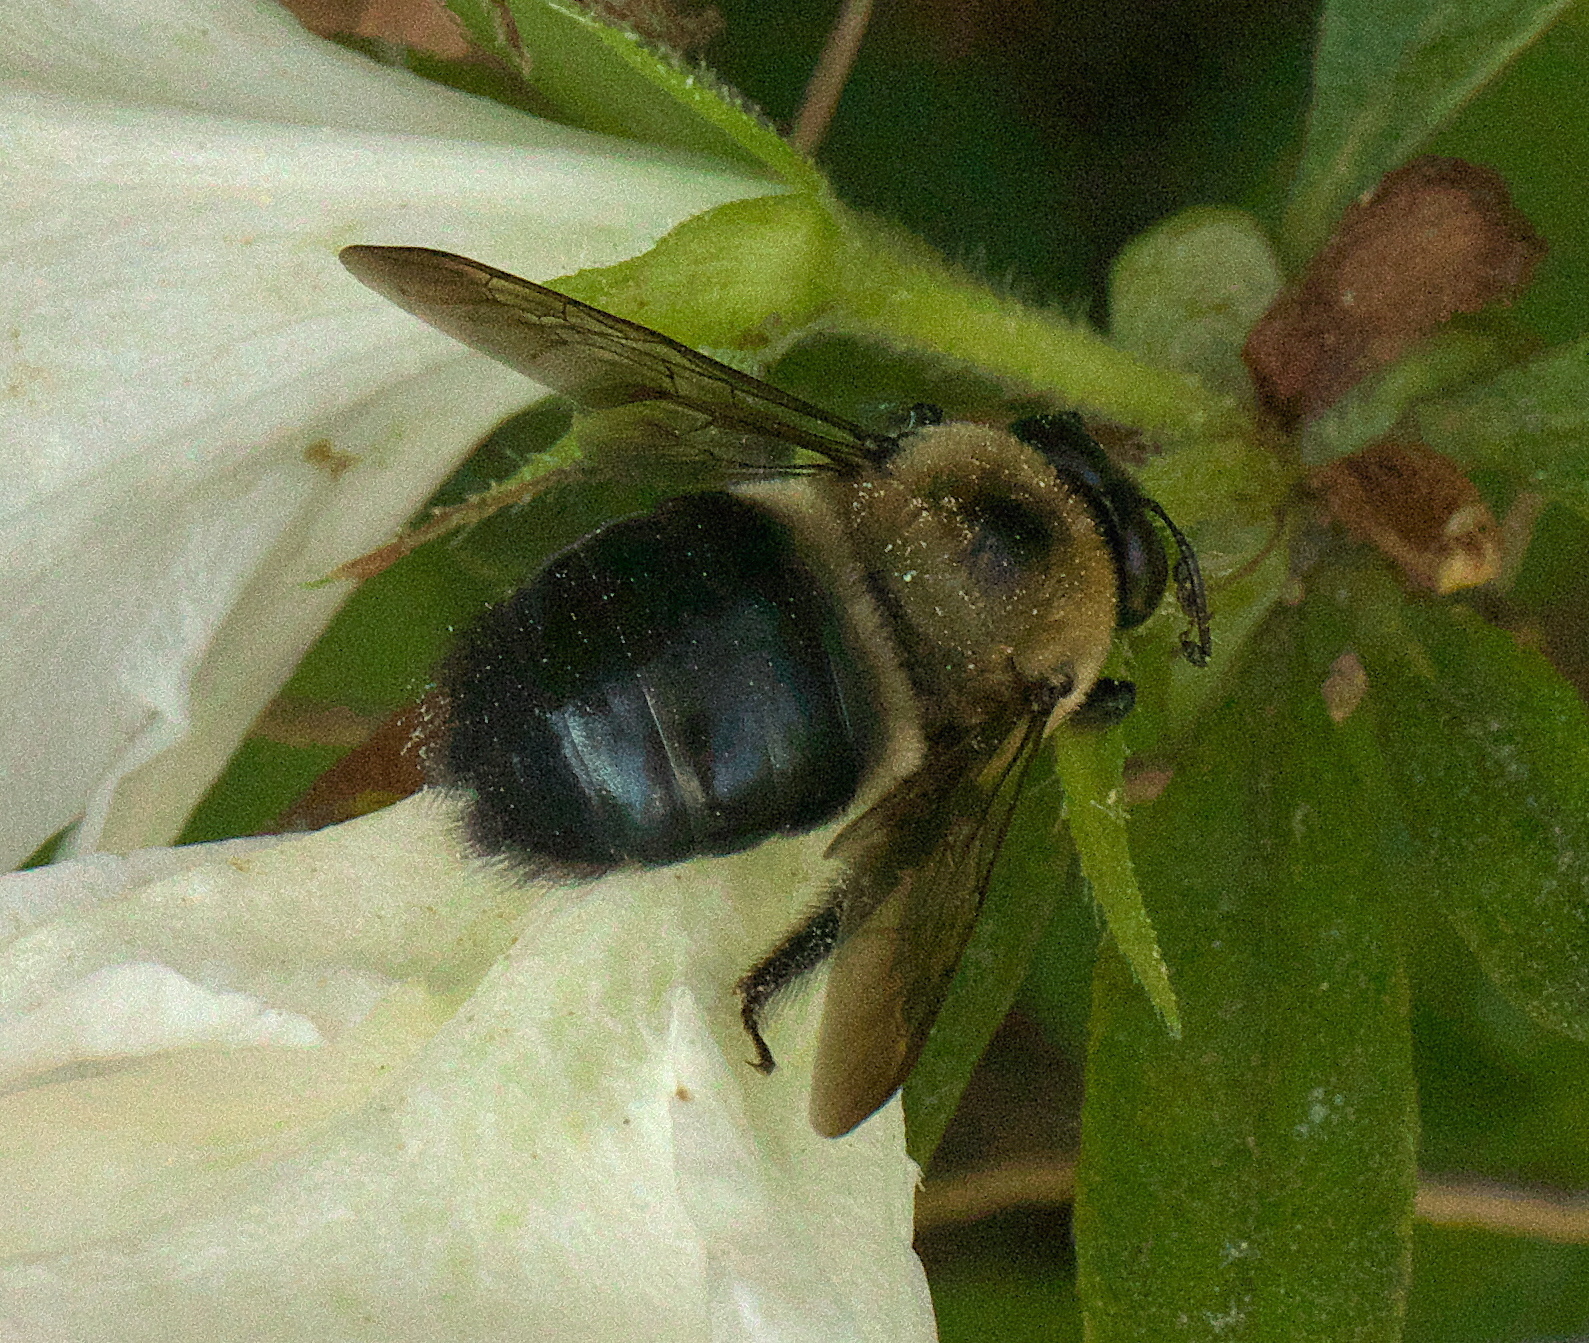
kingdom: Animalia
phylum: Arthropoda
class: Insecta
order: Hymenoptera
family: Apidae
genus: Xylocopa
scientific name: Xylocopa virginica
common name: Carpenter bee
